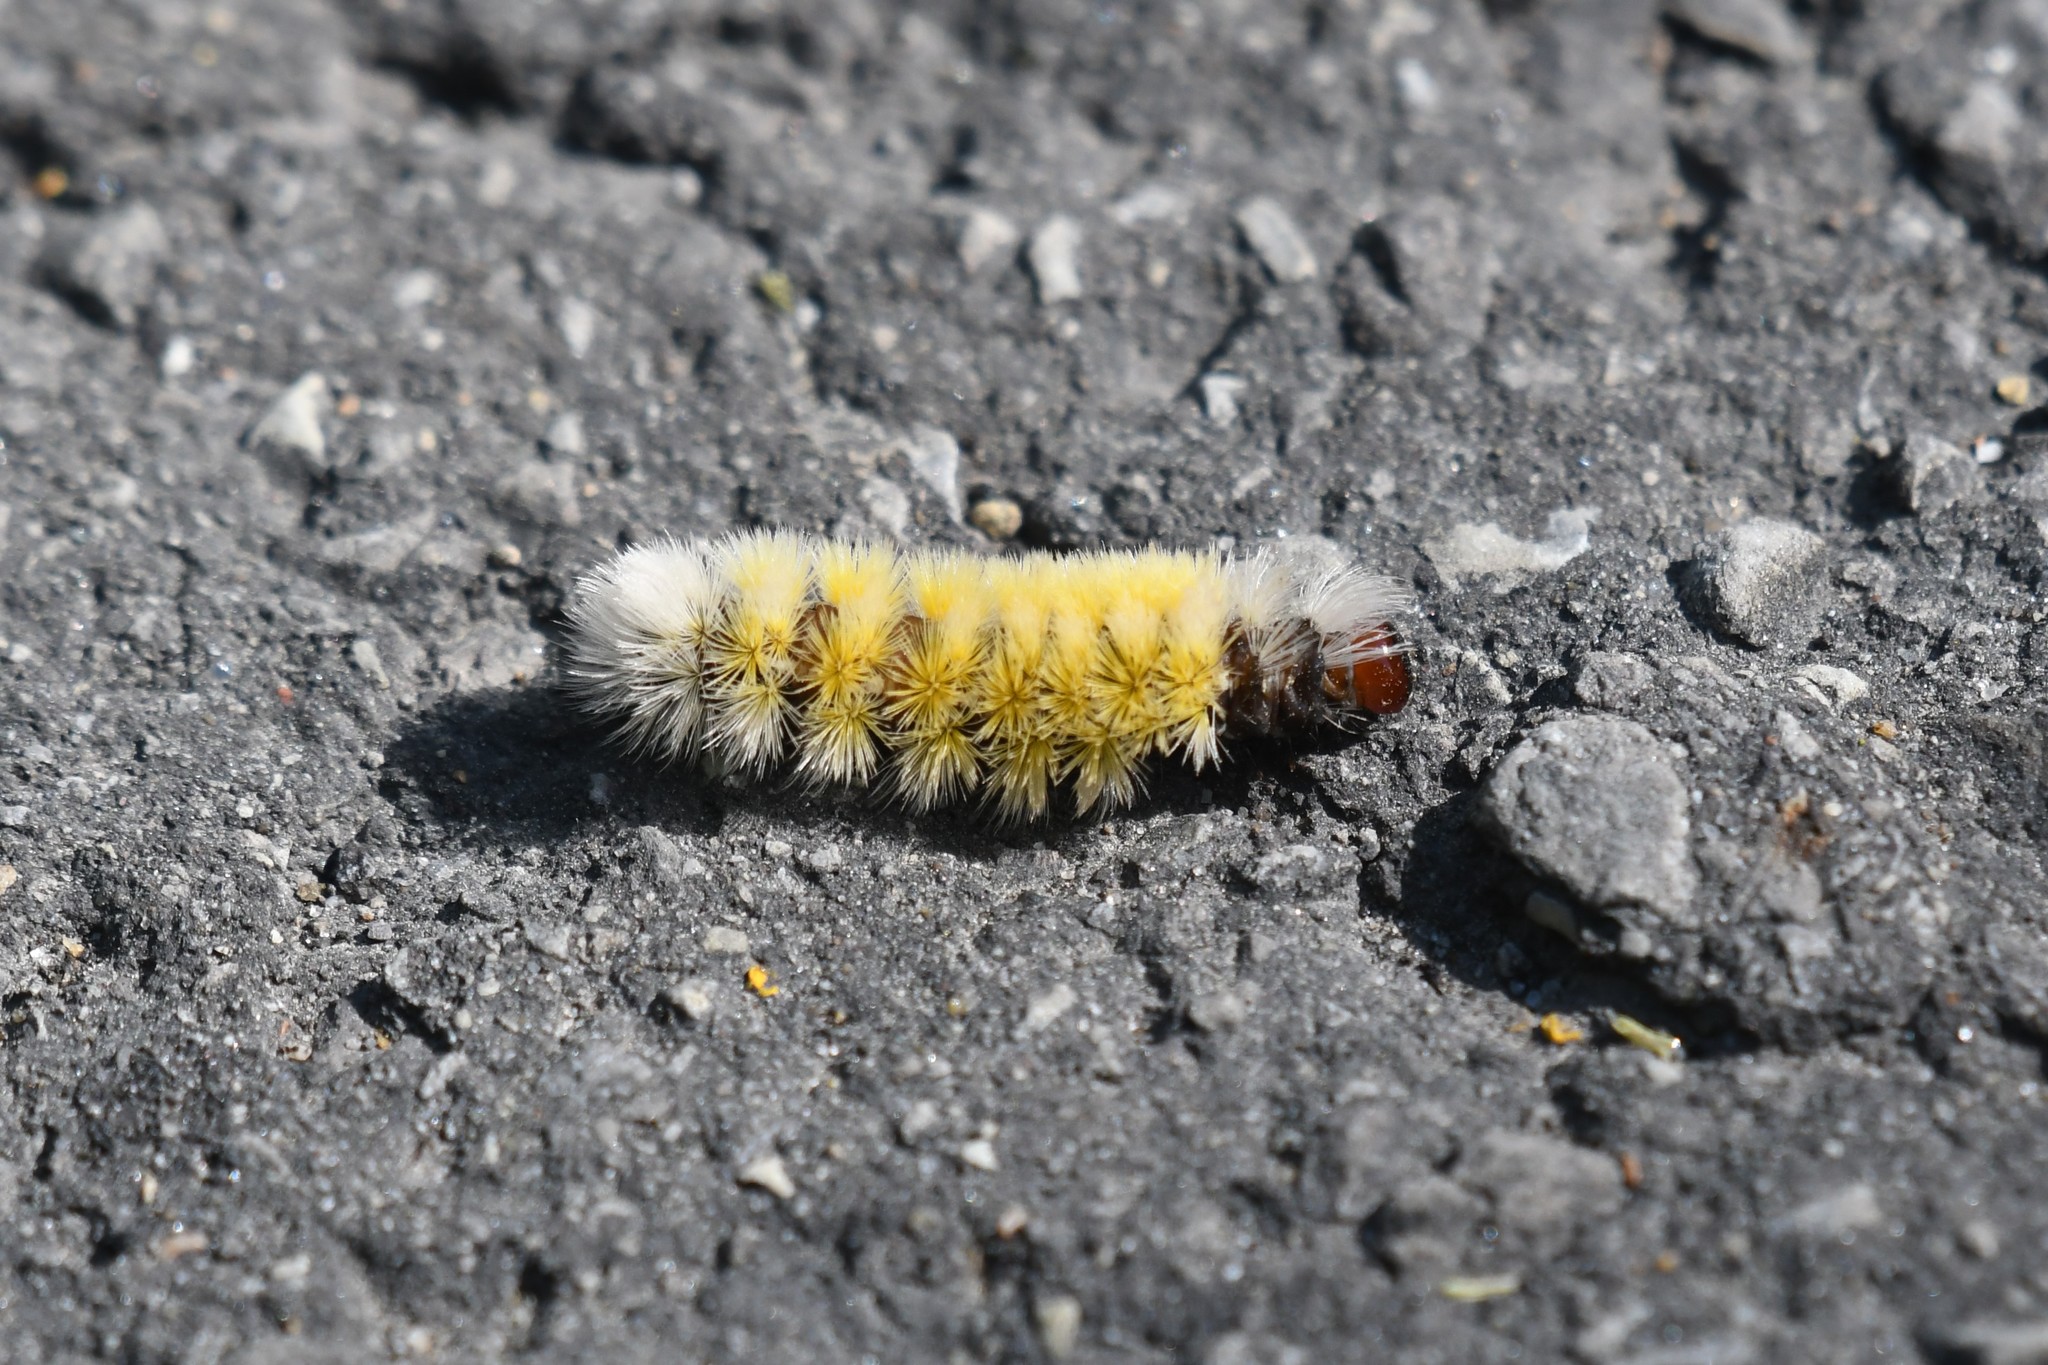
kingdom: Animalia
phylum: Arthropoda
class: Insecta
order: Lepidoptera
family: Erebidae
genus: Ctenucha
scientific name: Ctenucha virginica
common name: Virginia ctenucha moth
